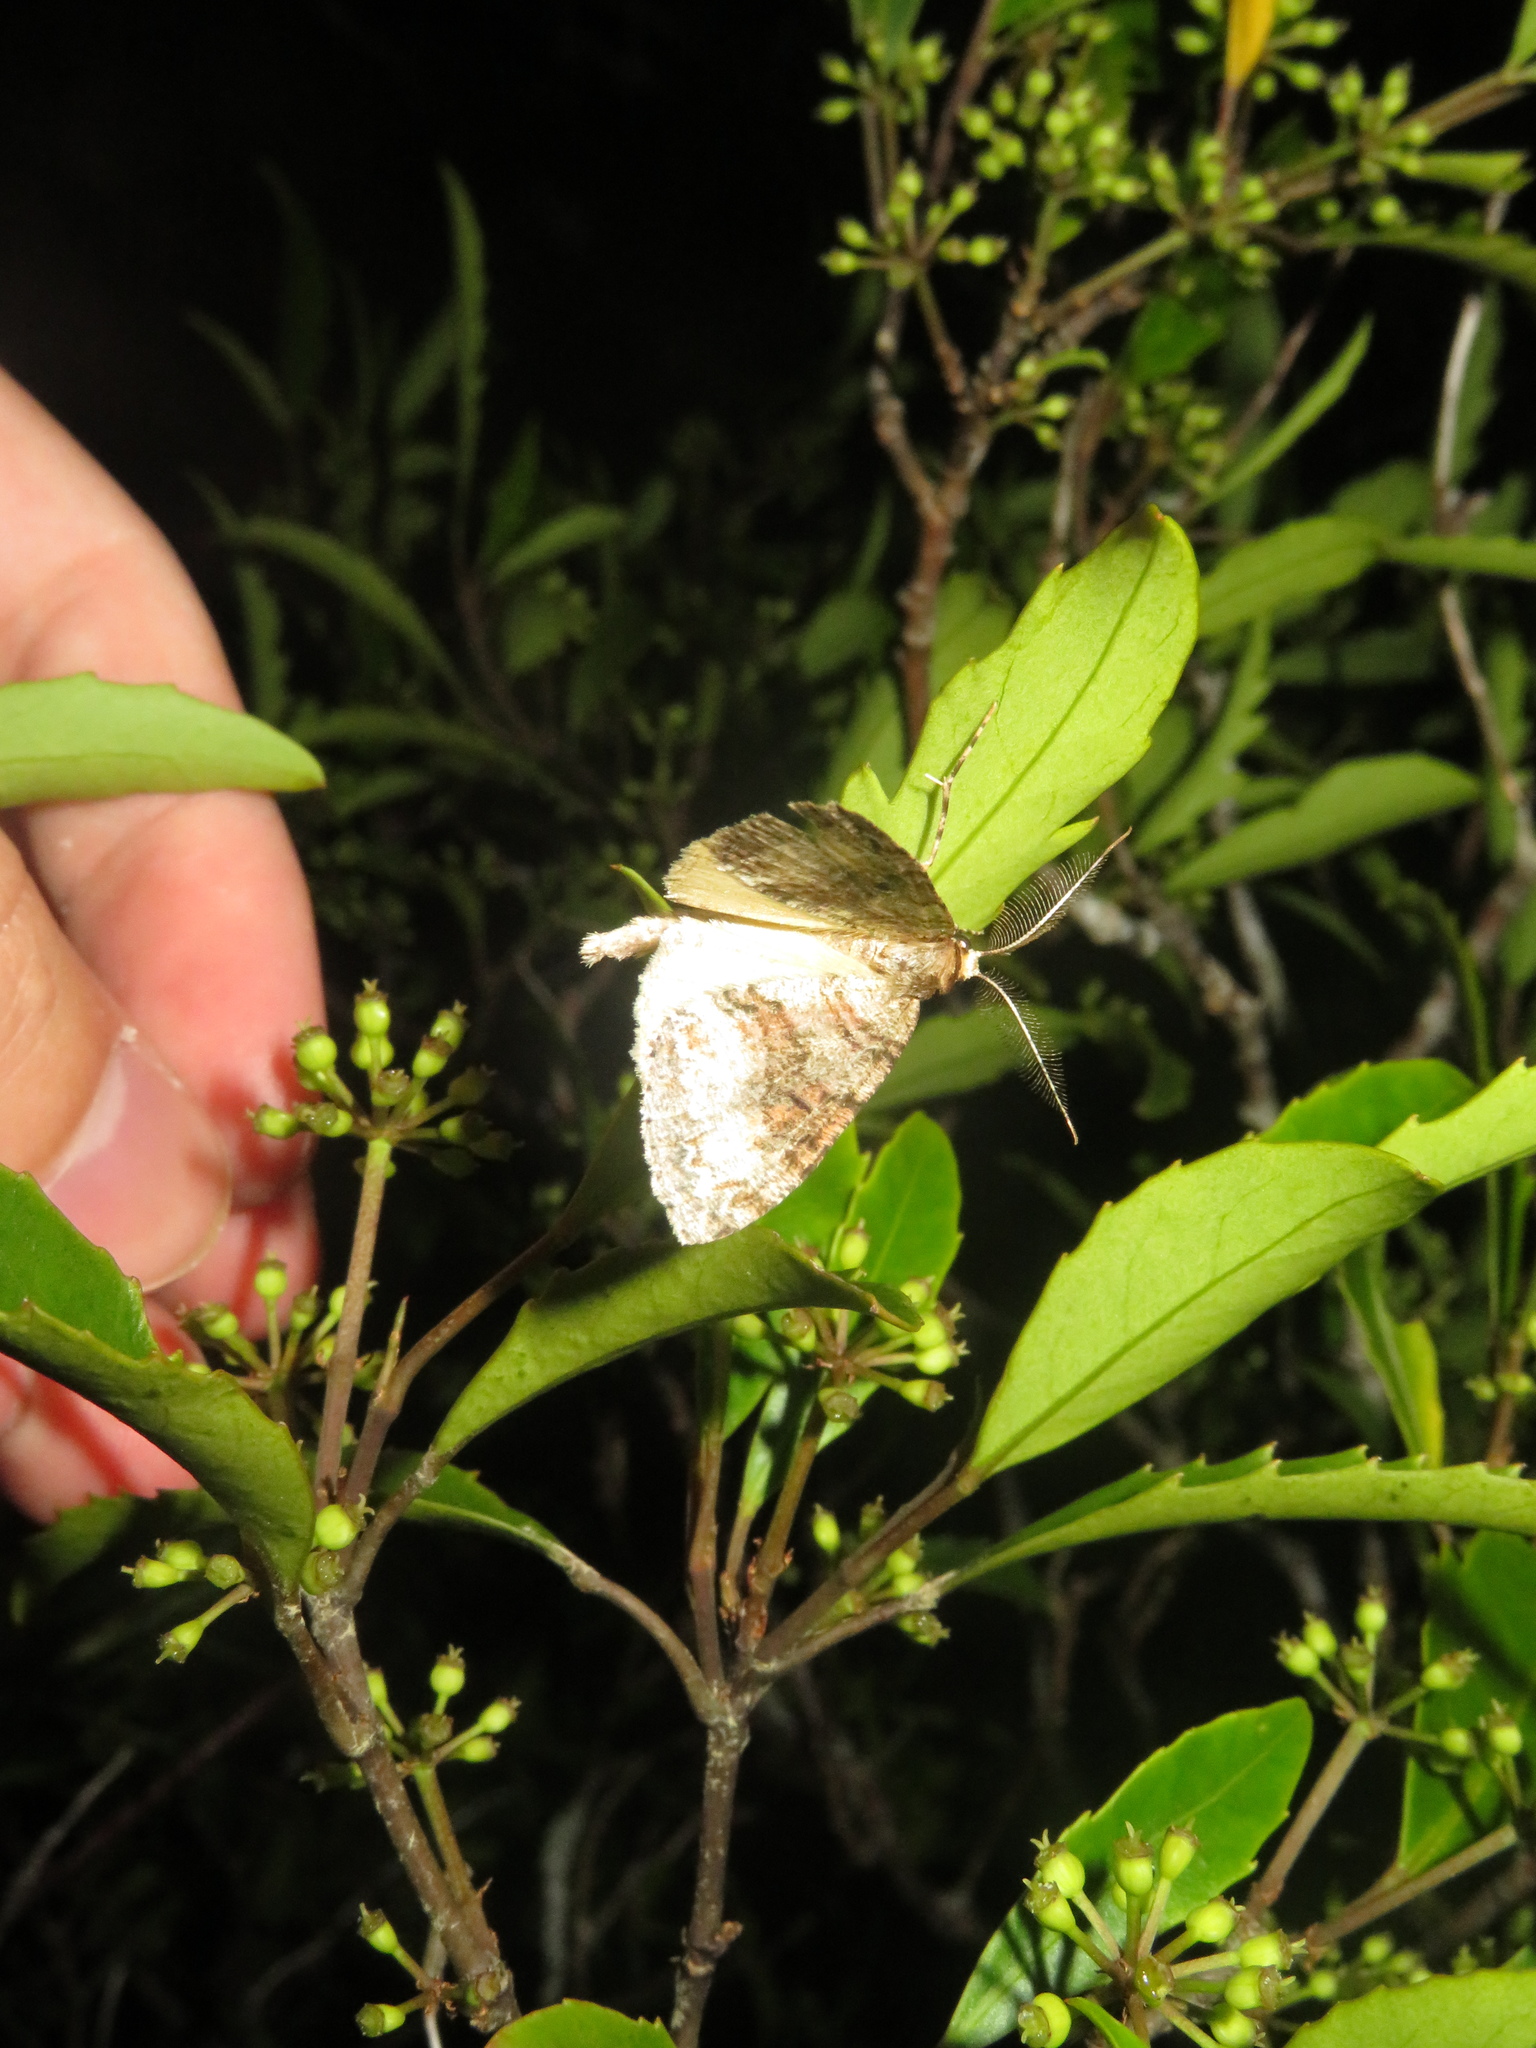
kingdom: Animalia
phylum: Arthropoda
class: Insecta
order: Lepidoptera
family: Geometridae
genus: Pseudocoremia
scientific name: Pseudocoremia suavis
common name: Common forest looper
